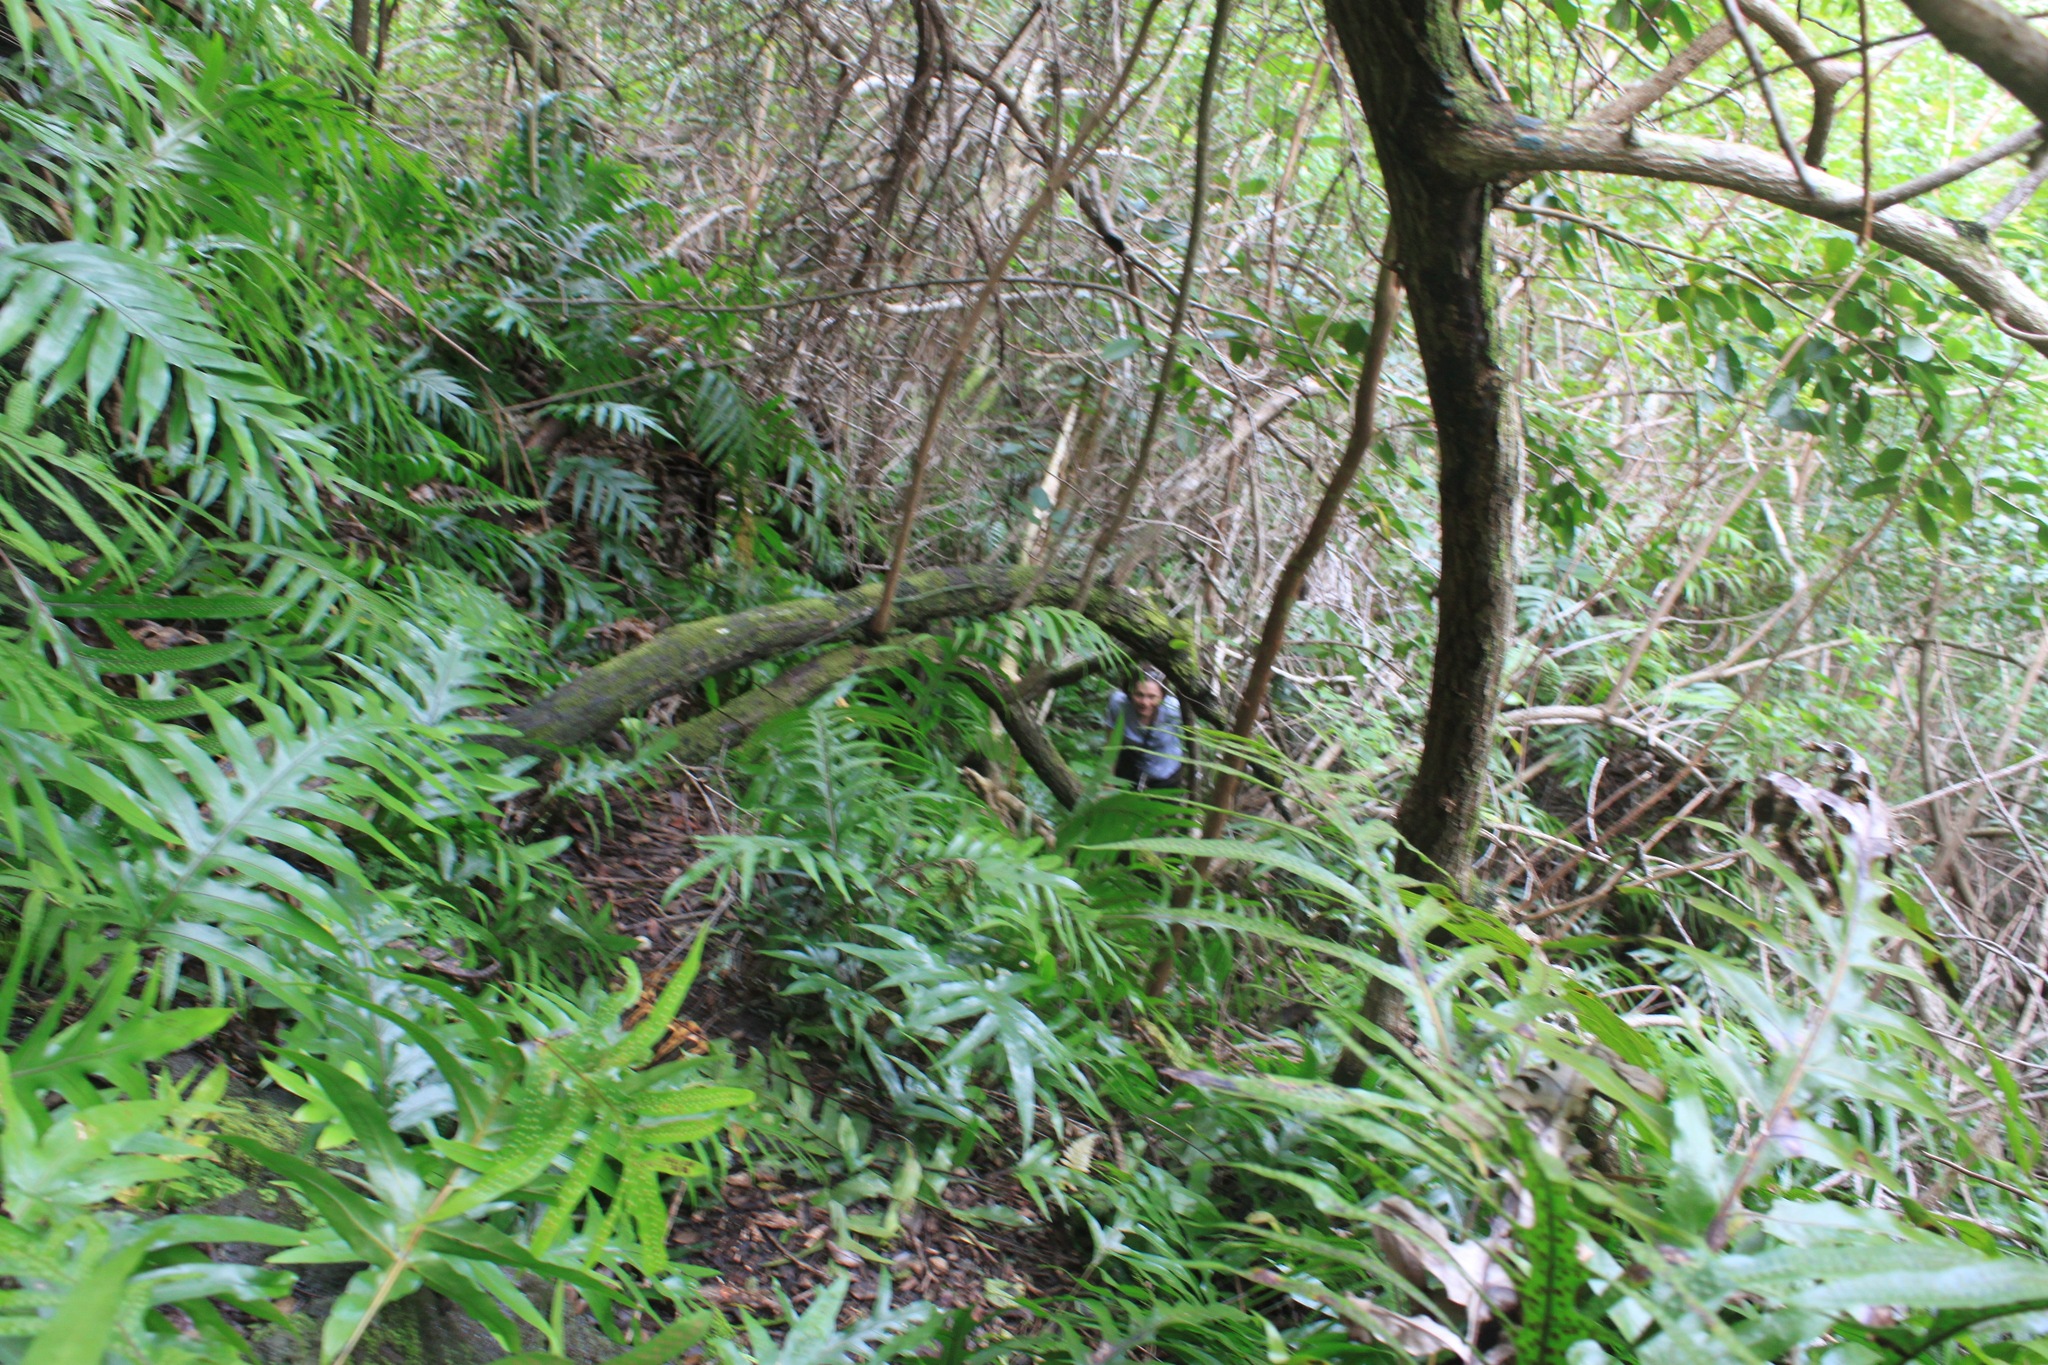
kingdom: Plantae
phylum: Tracheophyta
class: Polypodiopsida
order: Polypodiales
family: Polypodiaceae
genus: Microsorum
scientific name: Microsorum grossum
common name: Musk fern
